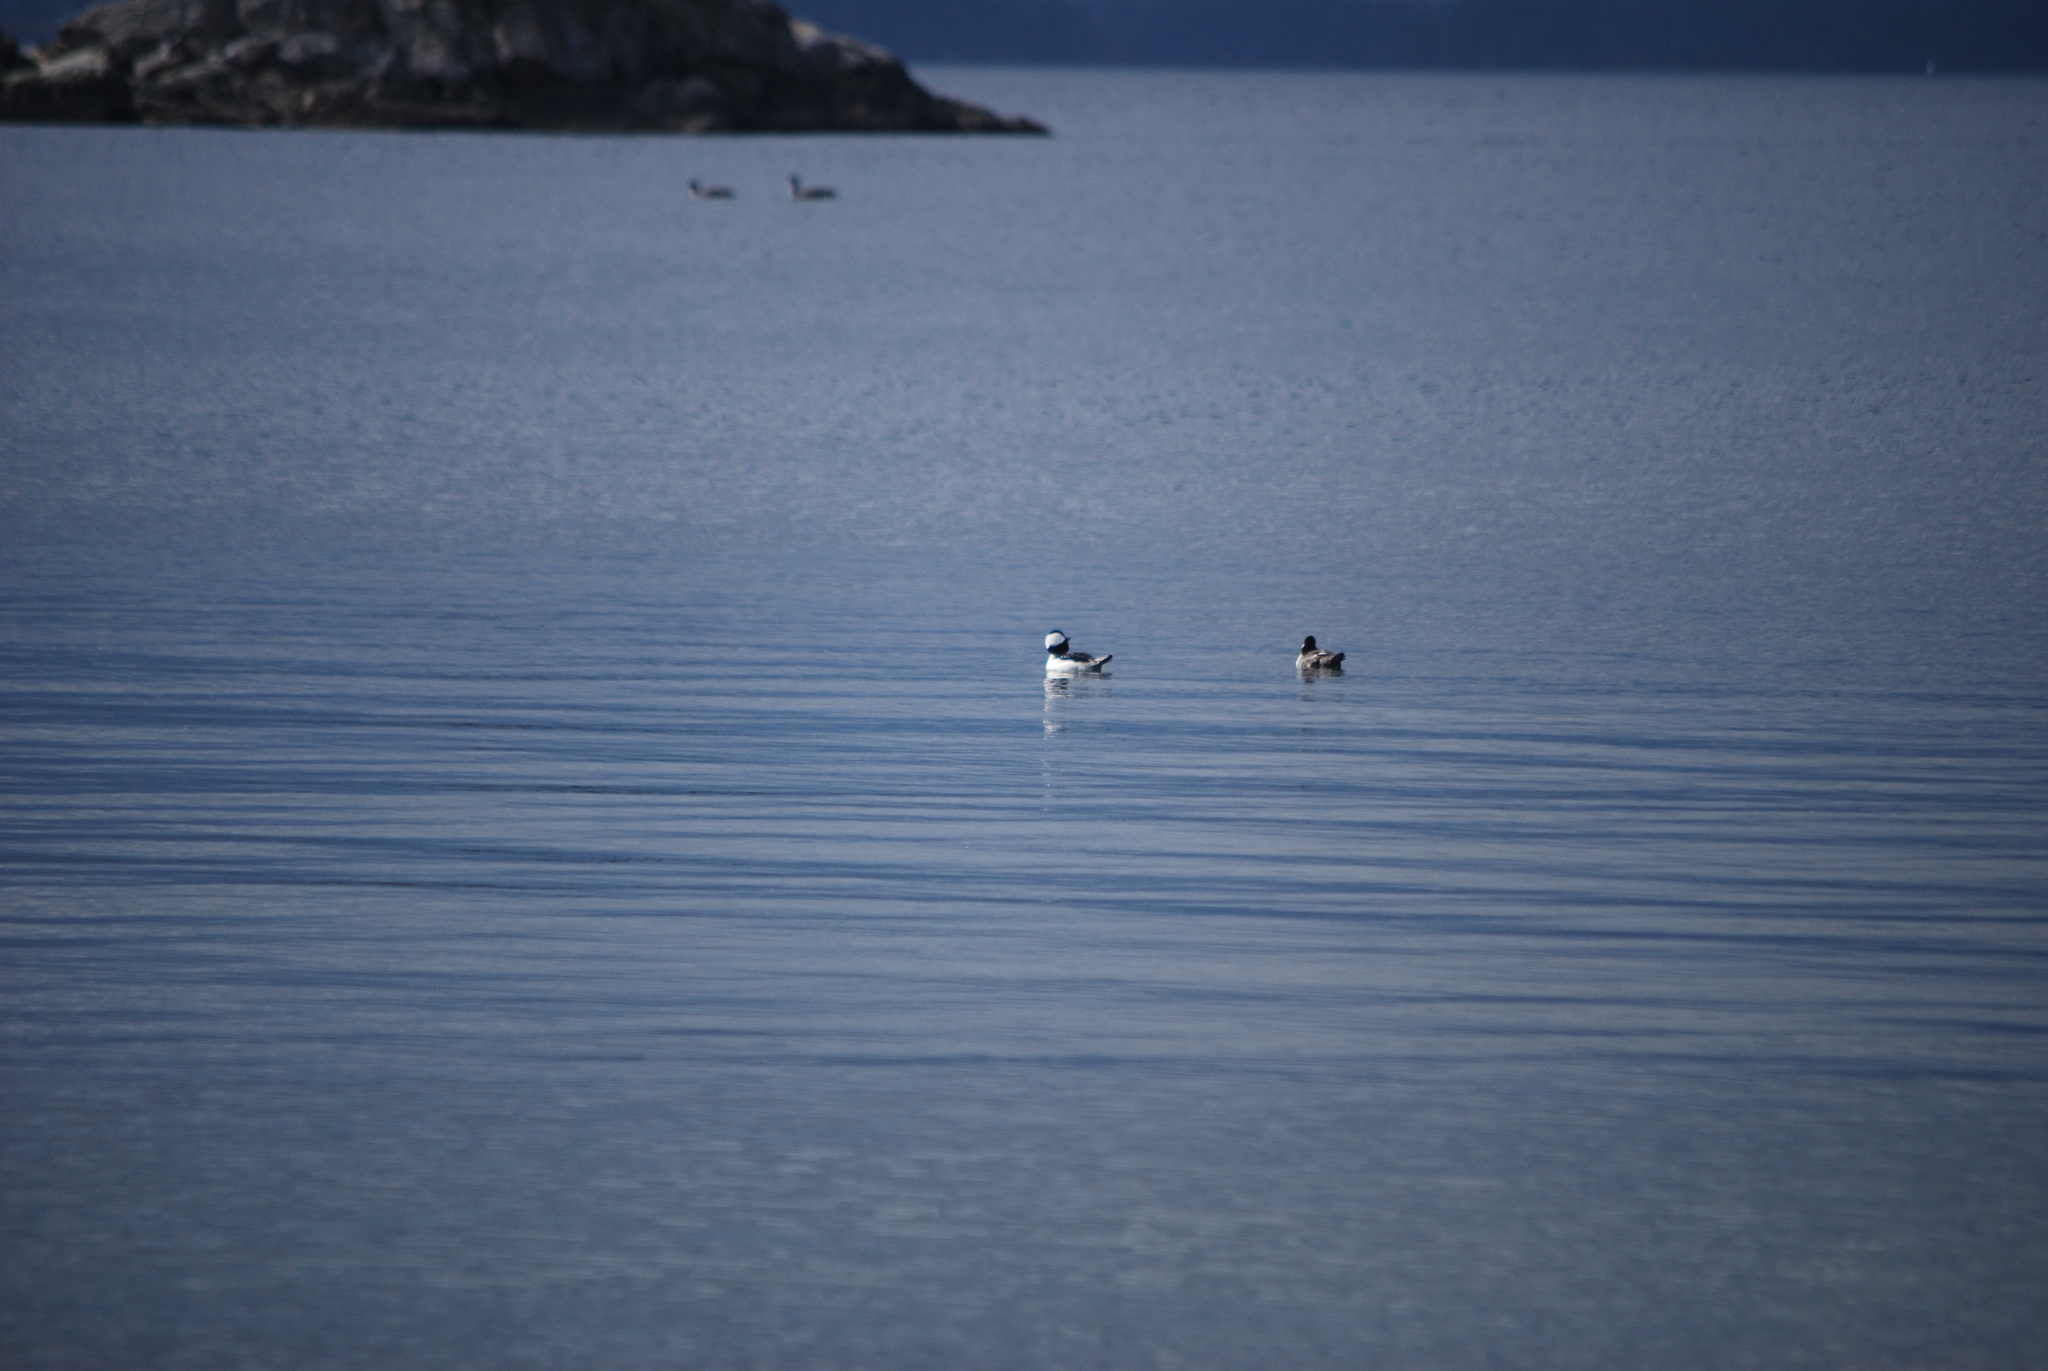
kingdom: Animalia
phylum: Chordata
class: Aves
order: Anseriformes
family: Anatidae
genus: Bucephala
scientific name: Bucephala albeola
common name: Bufflehead
